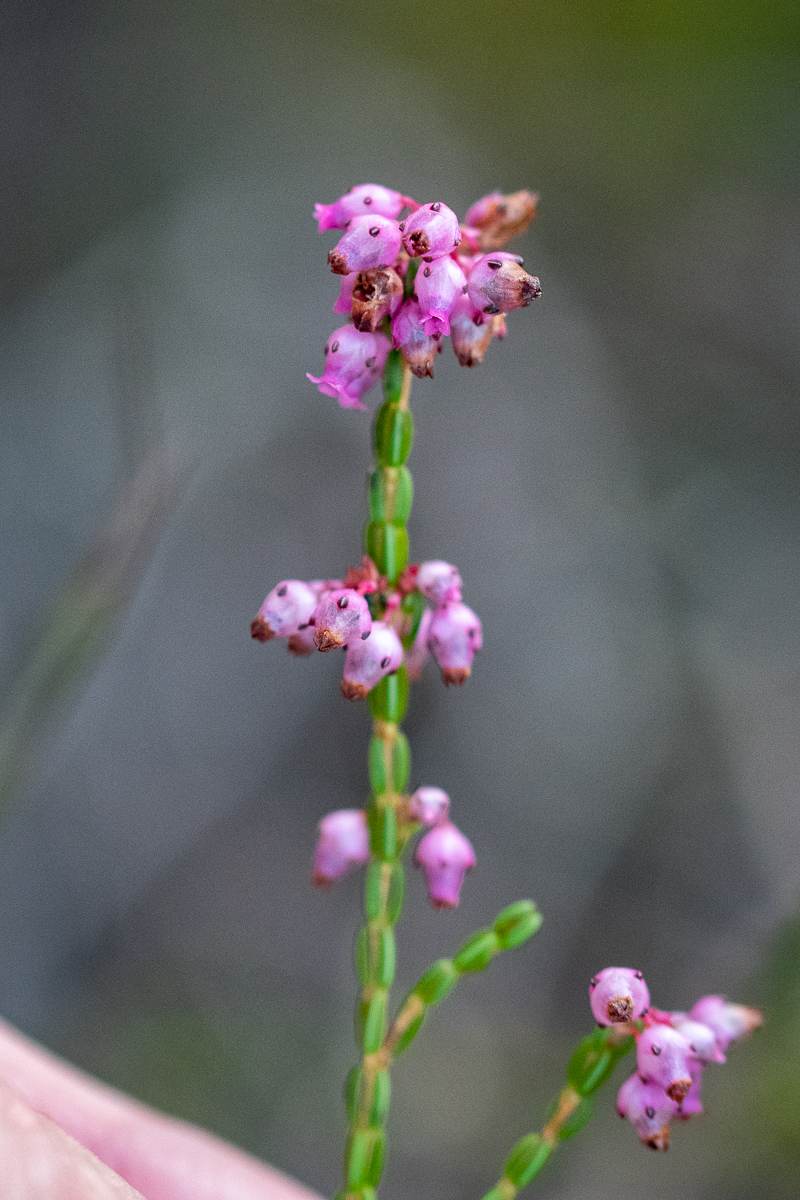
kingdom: Plantae
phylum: Tracheophyta
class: Magnoliopsida
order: Ericales
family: Ericaceae
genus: Erica
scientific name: Erica rhopalantha
